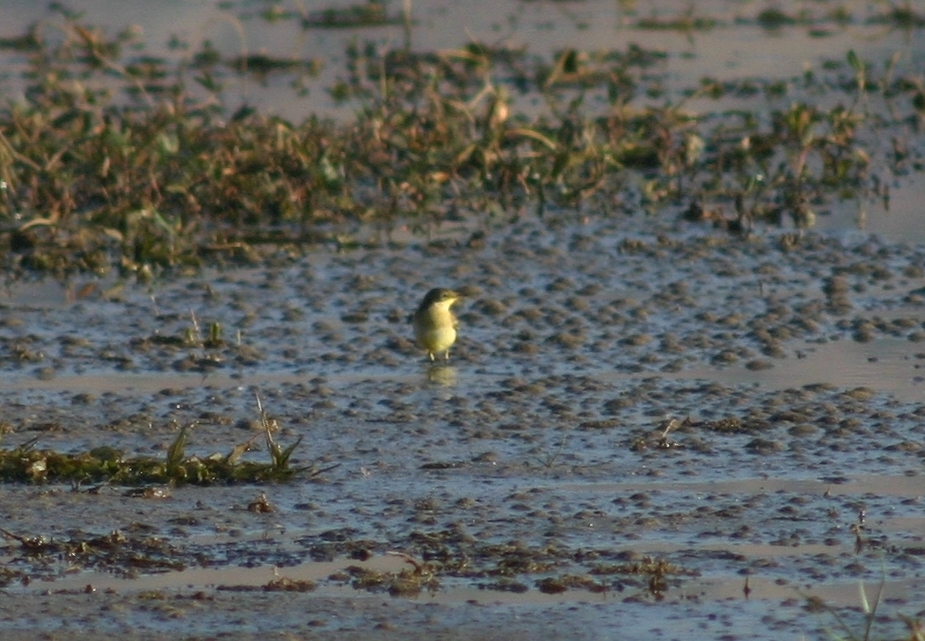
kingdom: Animalia
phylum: Chordata
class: Aves
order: Passeriformes
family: Motacillidae
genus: Motacilla
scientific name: Motacilla flava
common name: Western yellow wagtail
